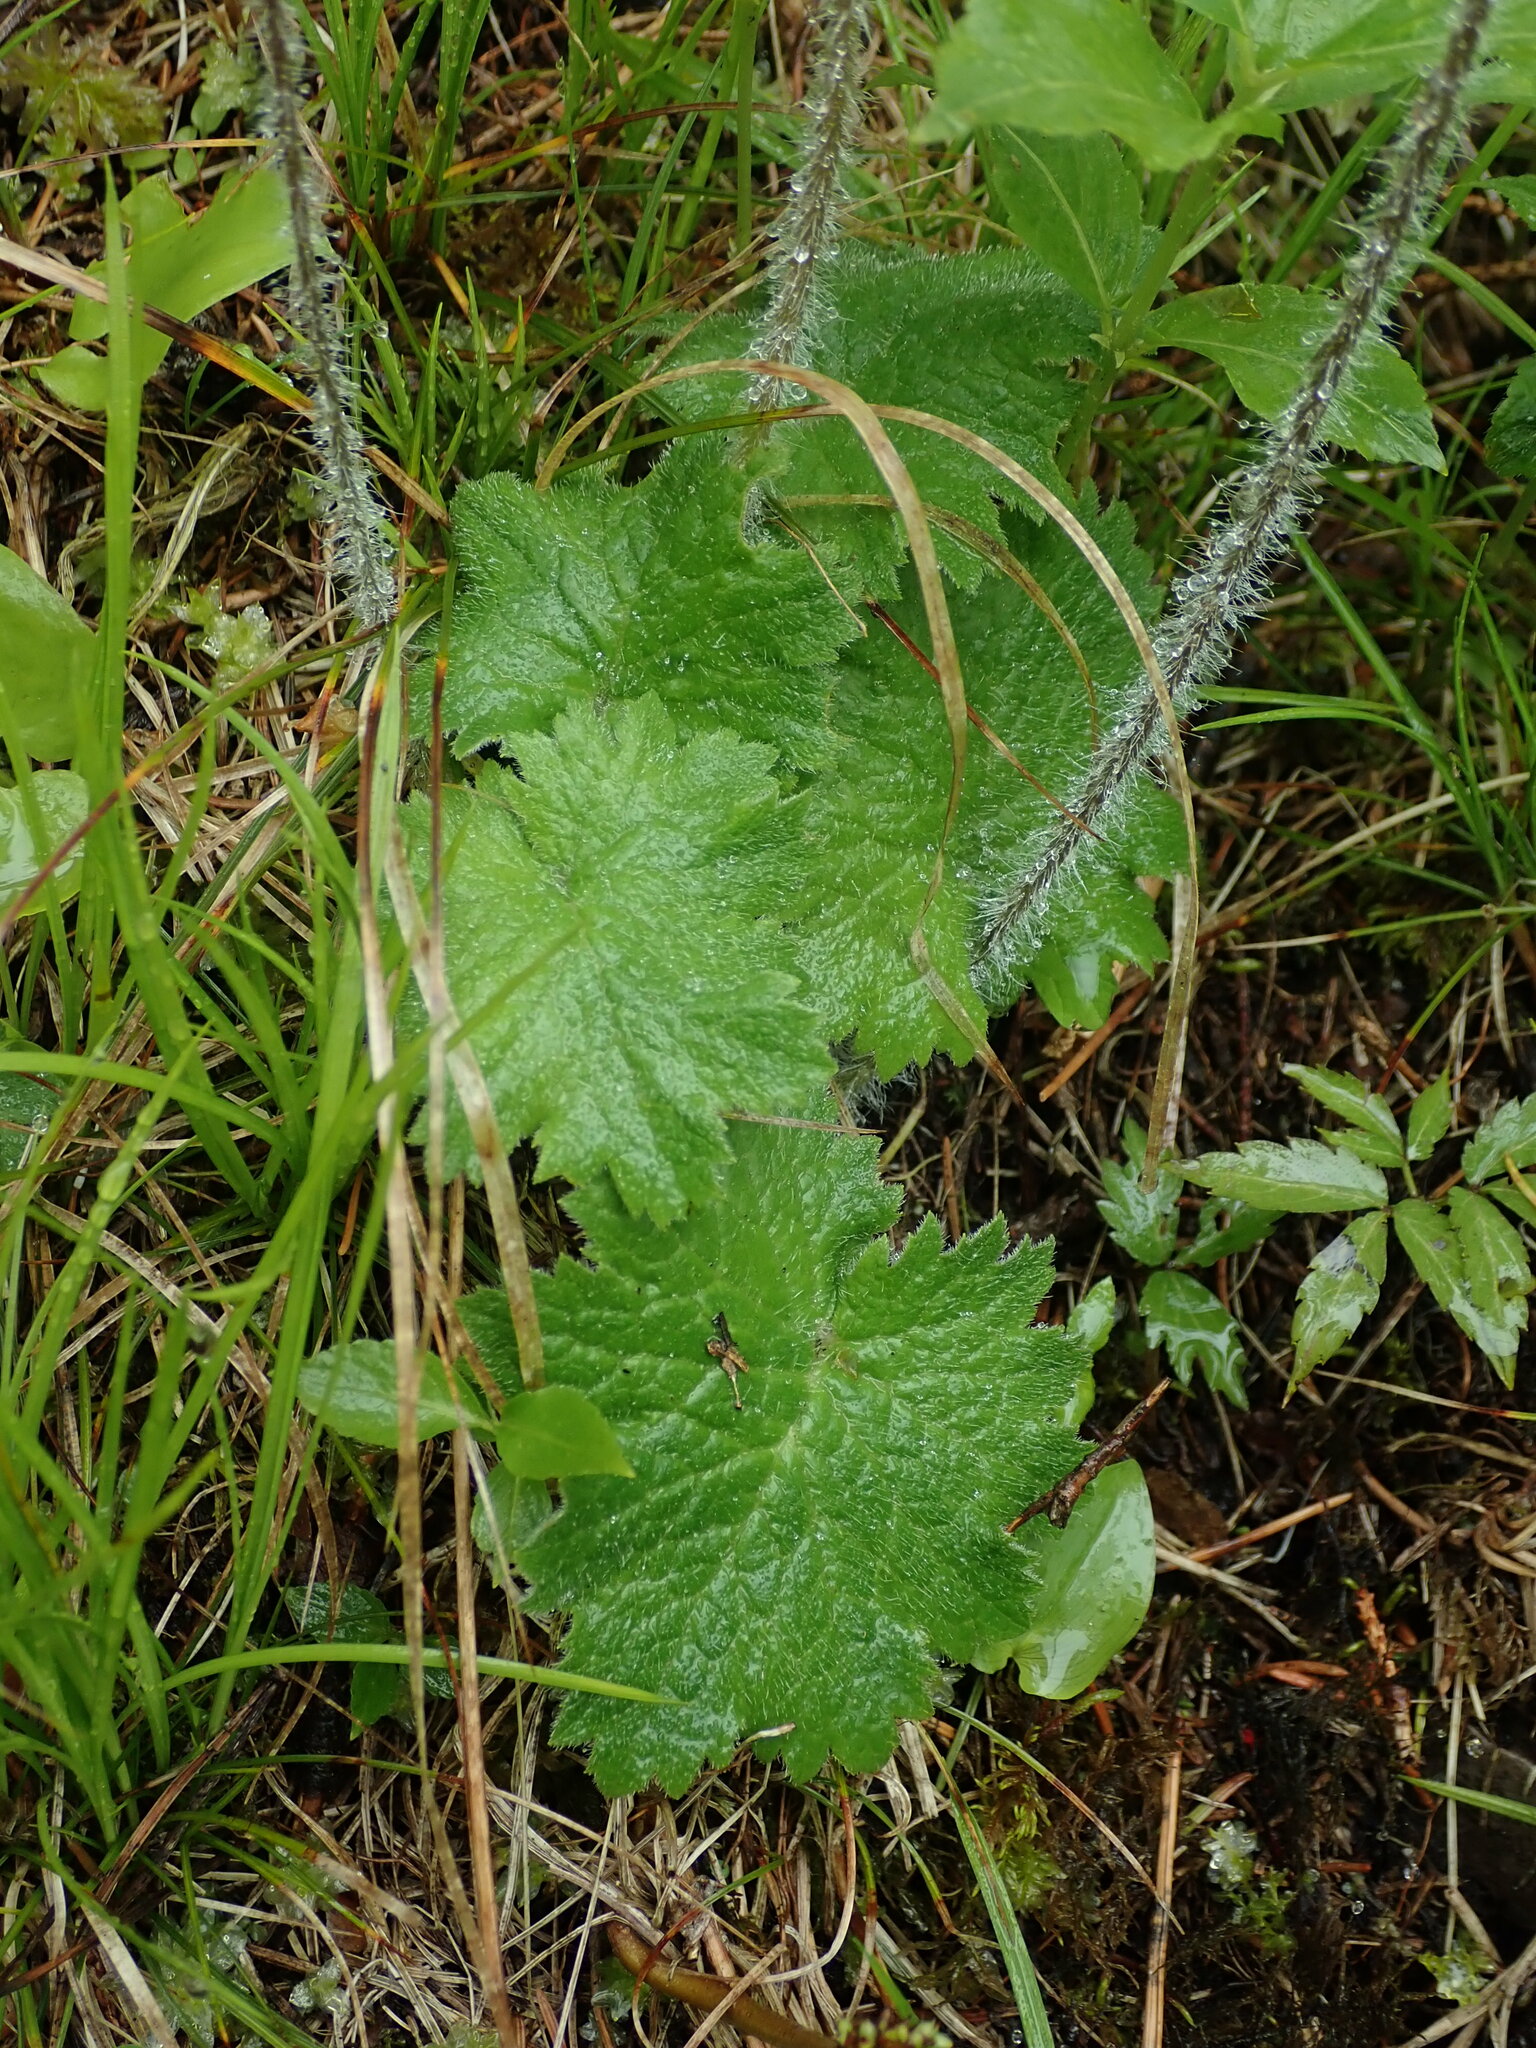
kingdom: Plantae
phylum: Tracheophyta
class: Magnoliopsida
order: Ericales
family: Primulaceae
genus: Primula
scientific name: Primula matthioli
